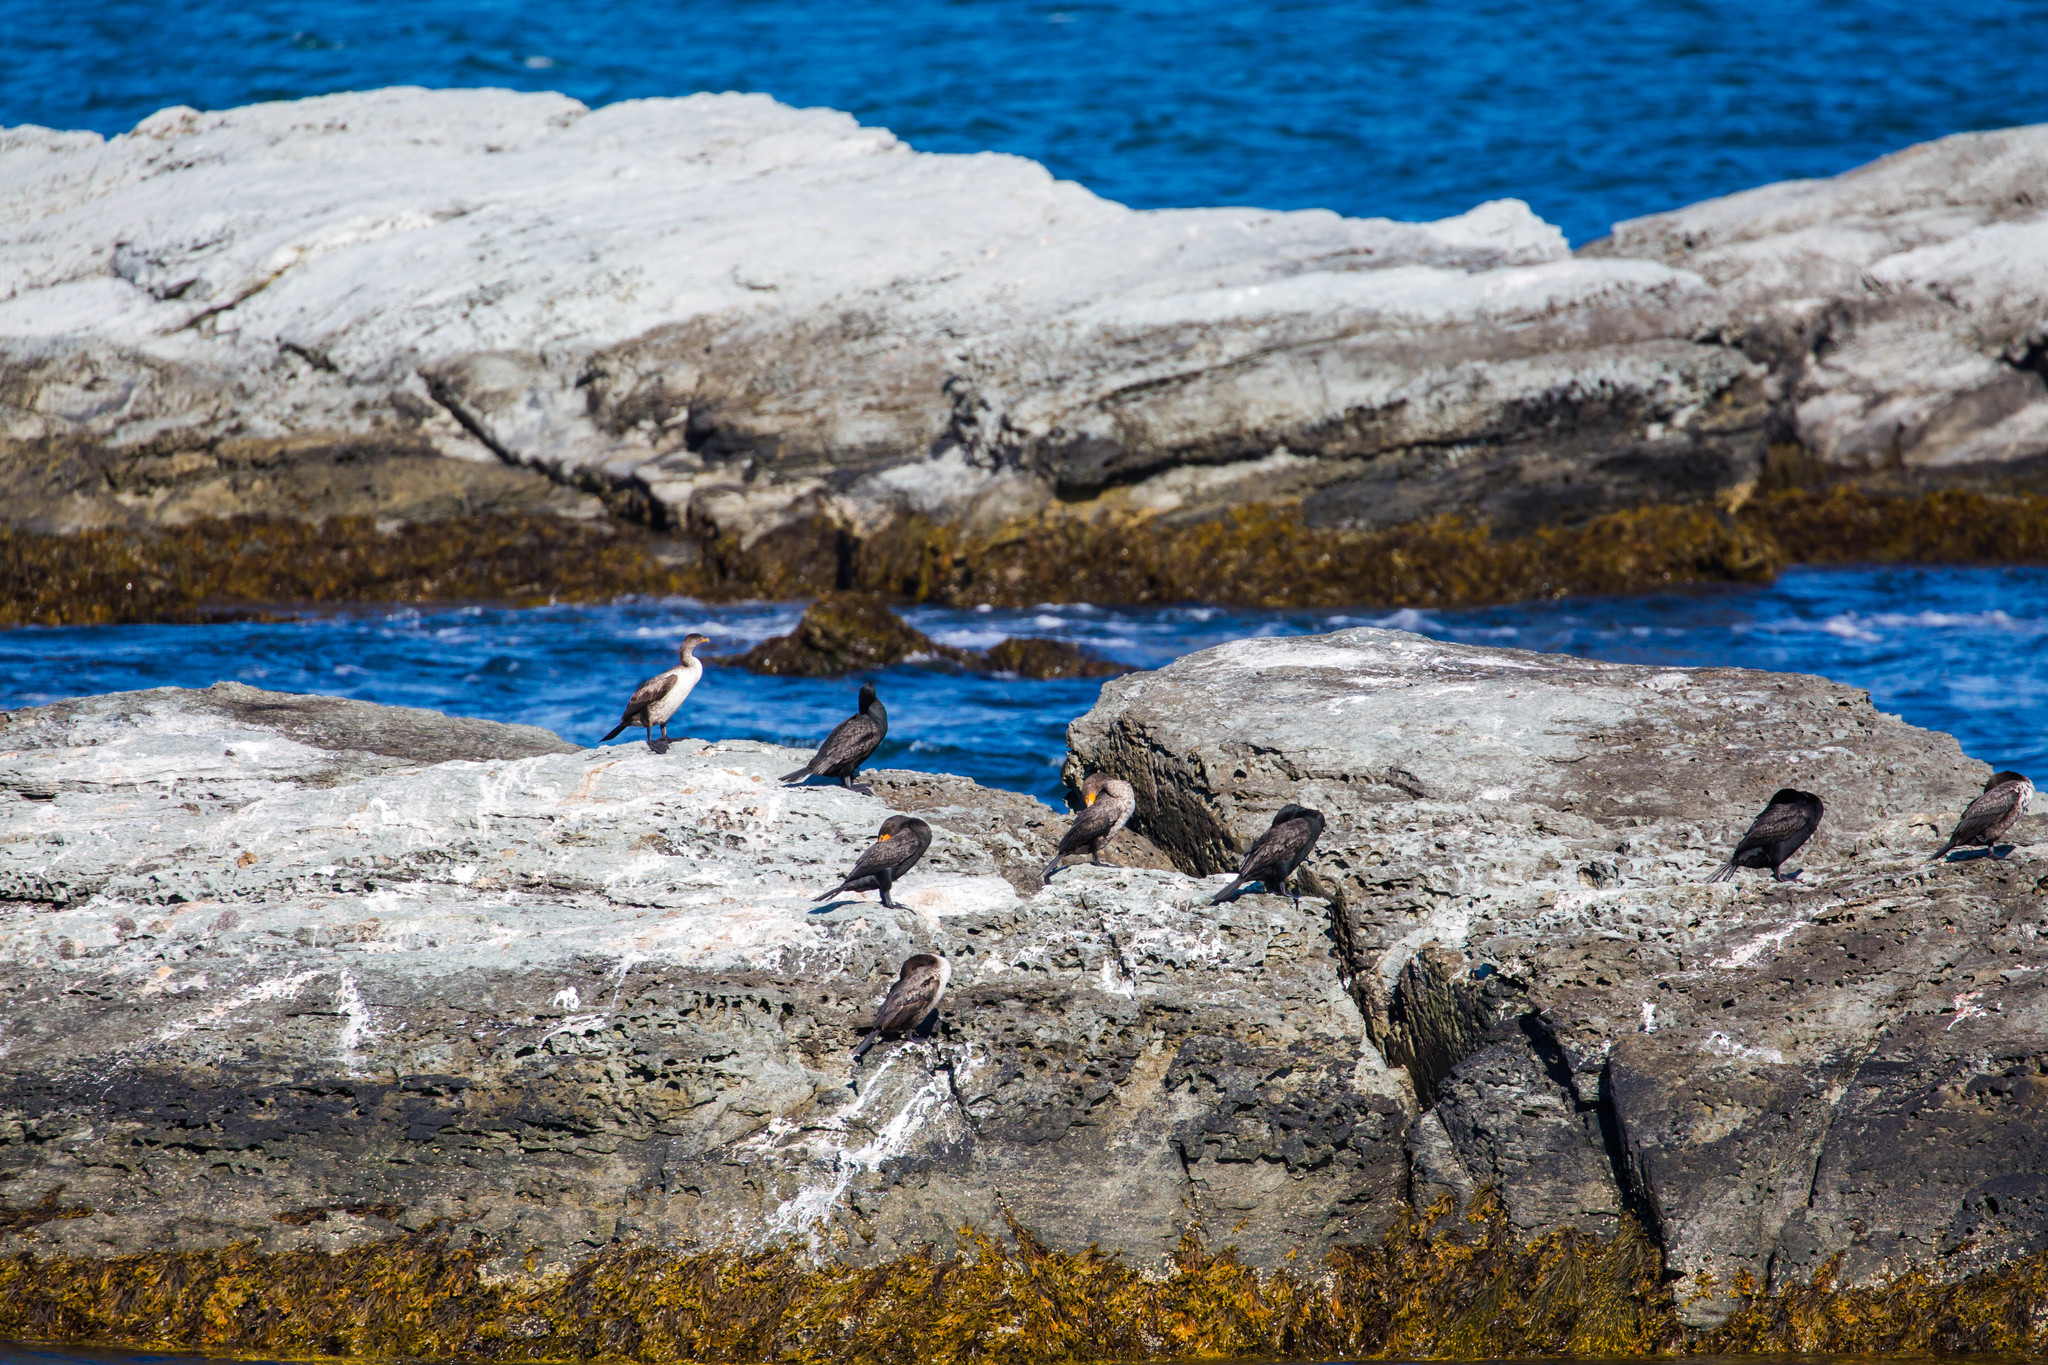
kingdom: Animalia
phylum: Chordata
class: Aves
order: Suliformes
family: Phalacrocoracidae
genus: Phalacrocorax
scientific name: Phalacrocorax auritus
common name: Double-crested cormorant
